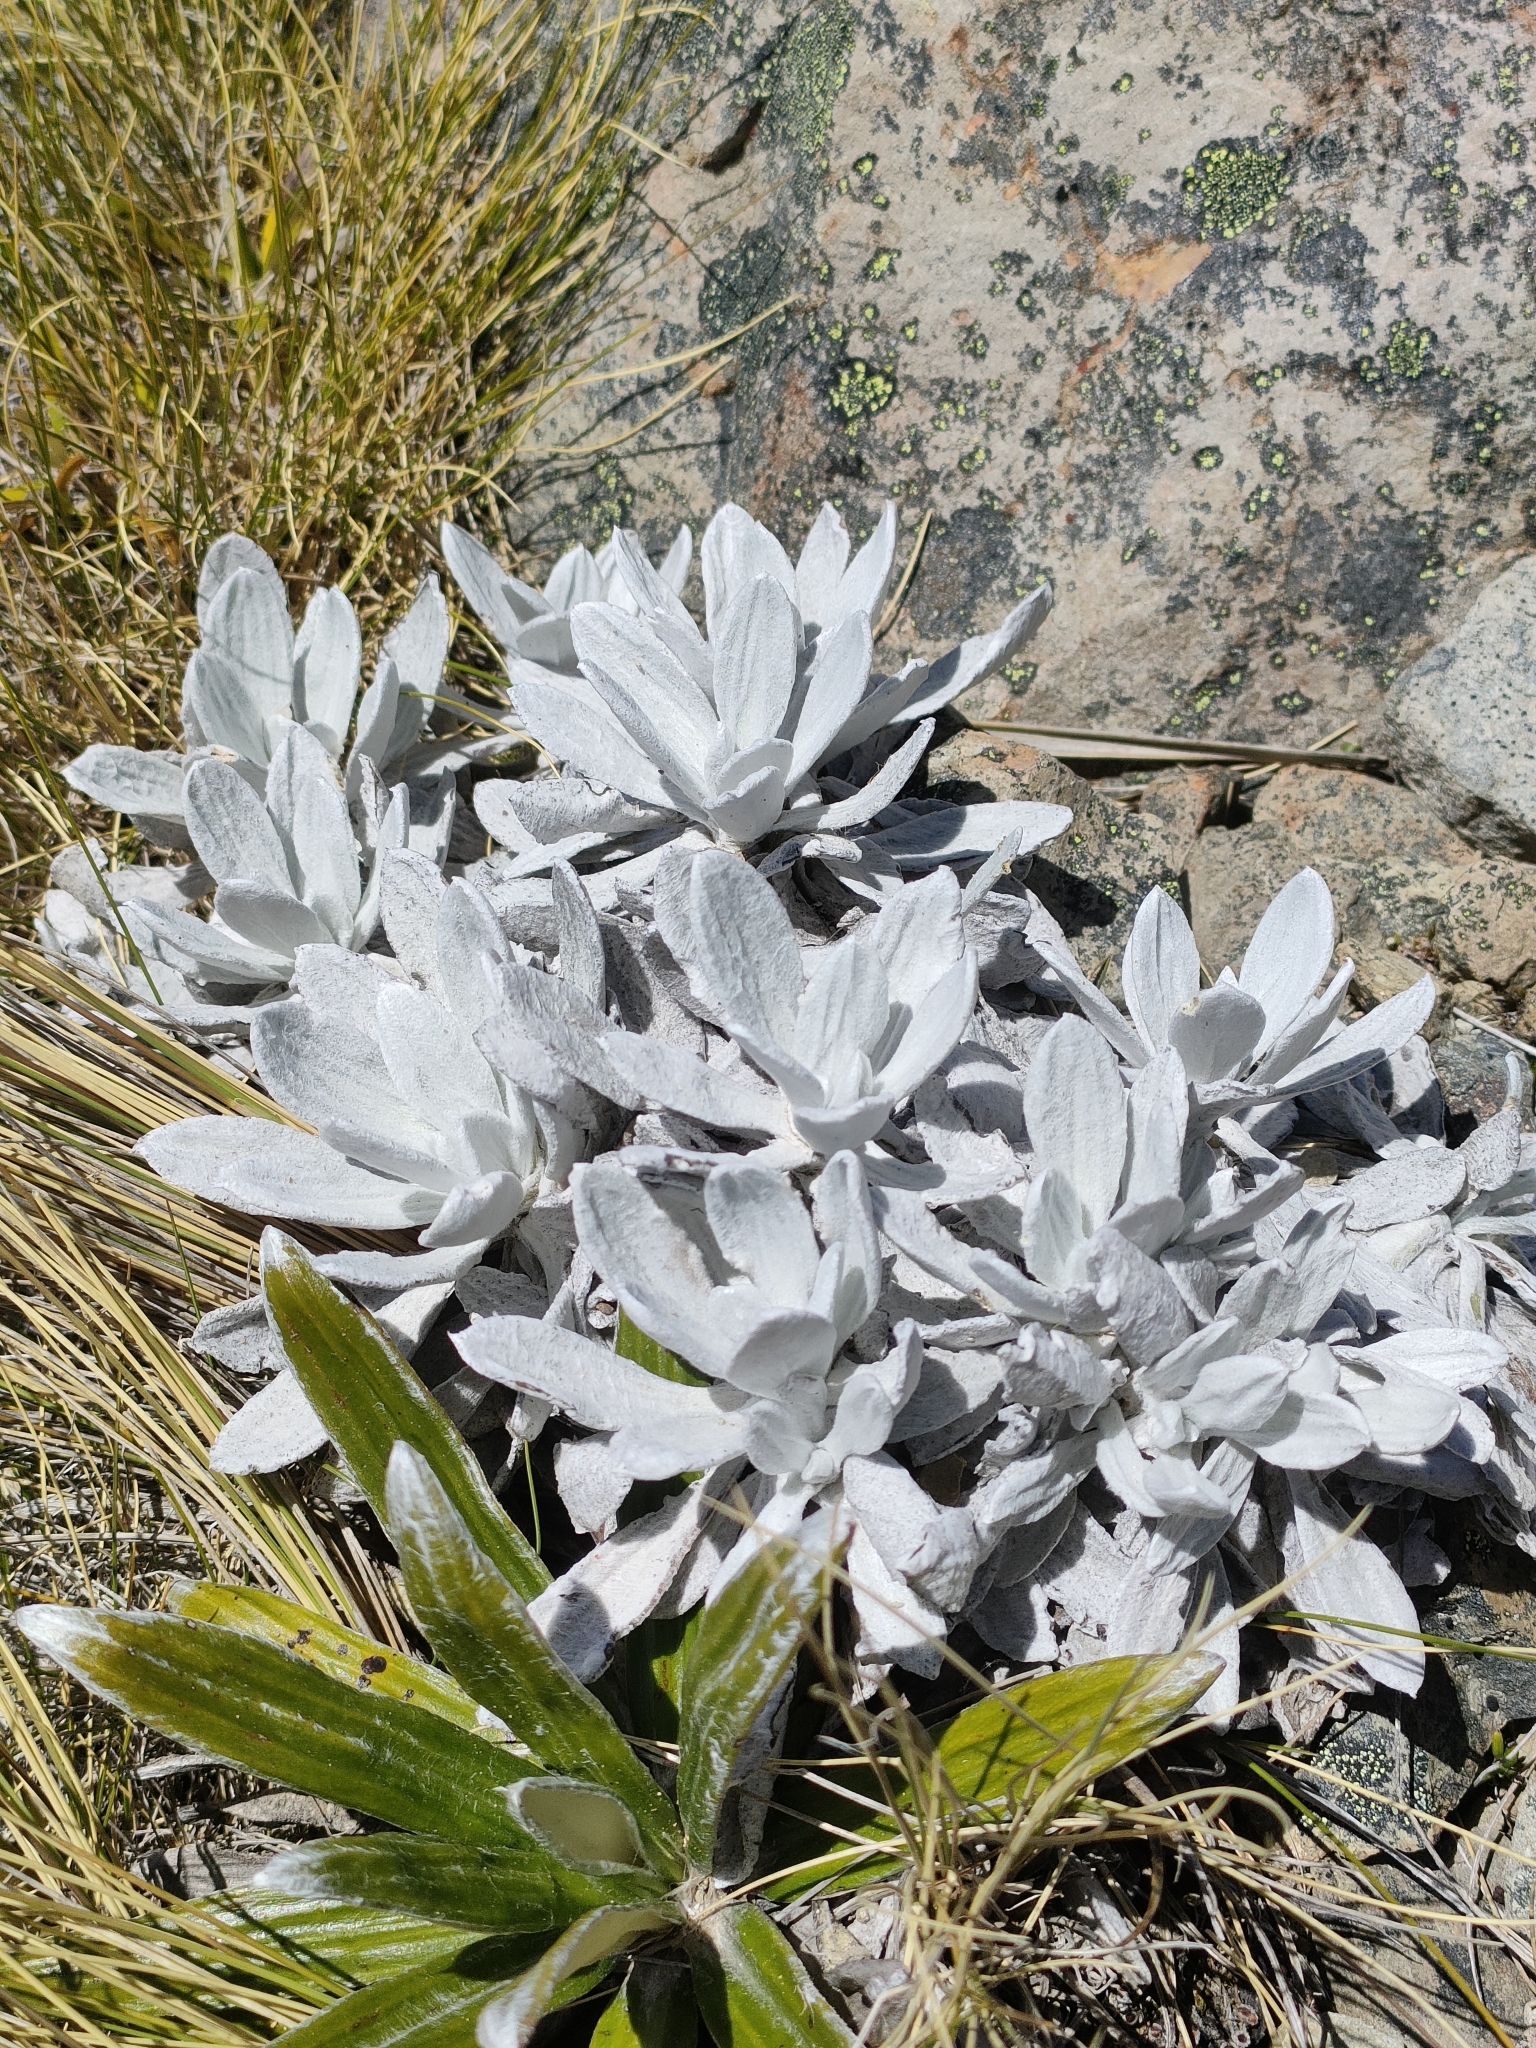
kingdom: Plantae
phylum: Tracheophyta
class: Magnoliopsida
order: Asterales
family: Asteraceae
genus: Celmisia
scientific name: Celmisia allanii
